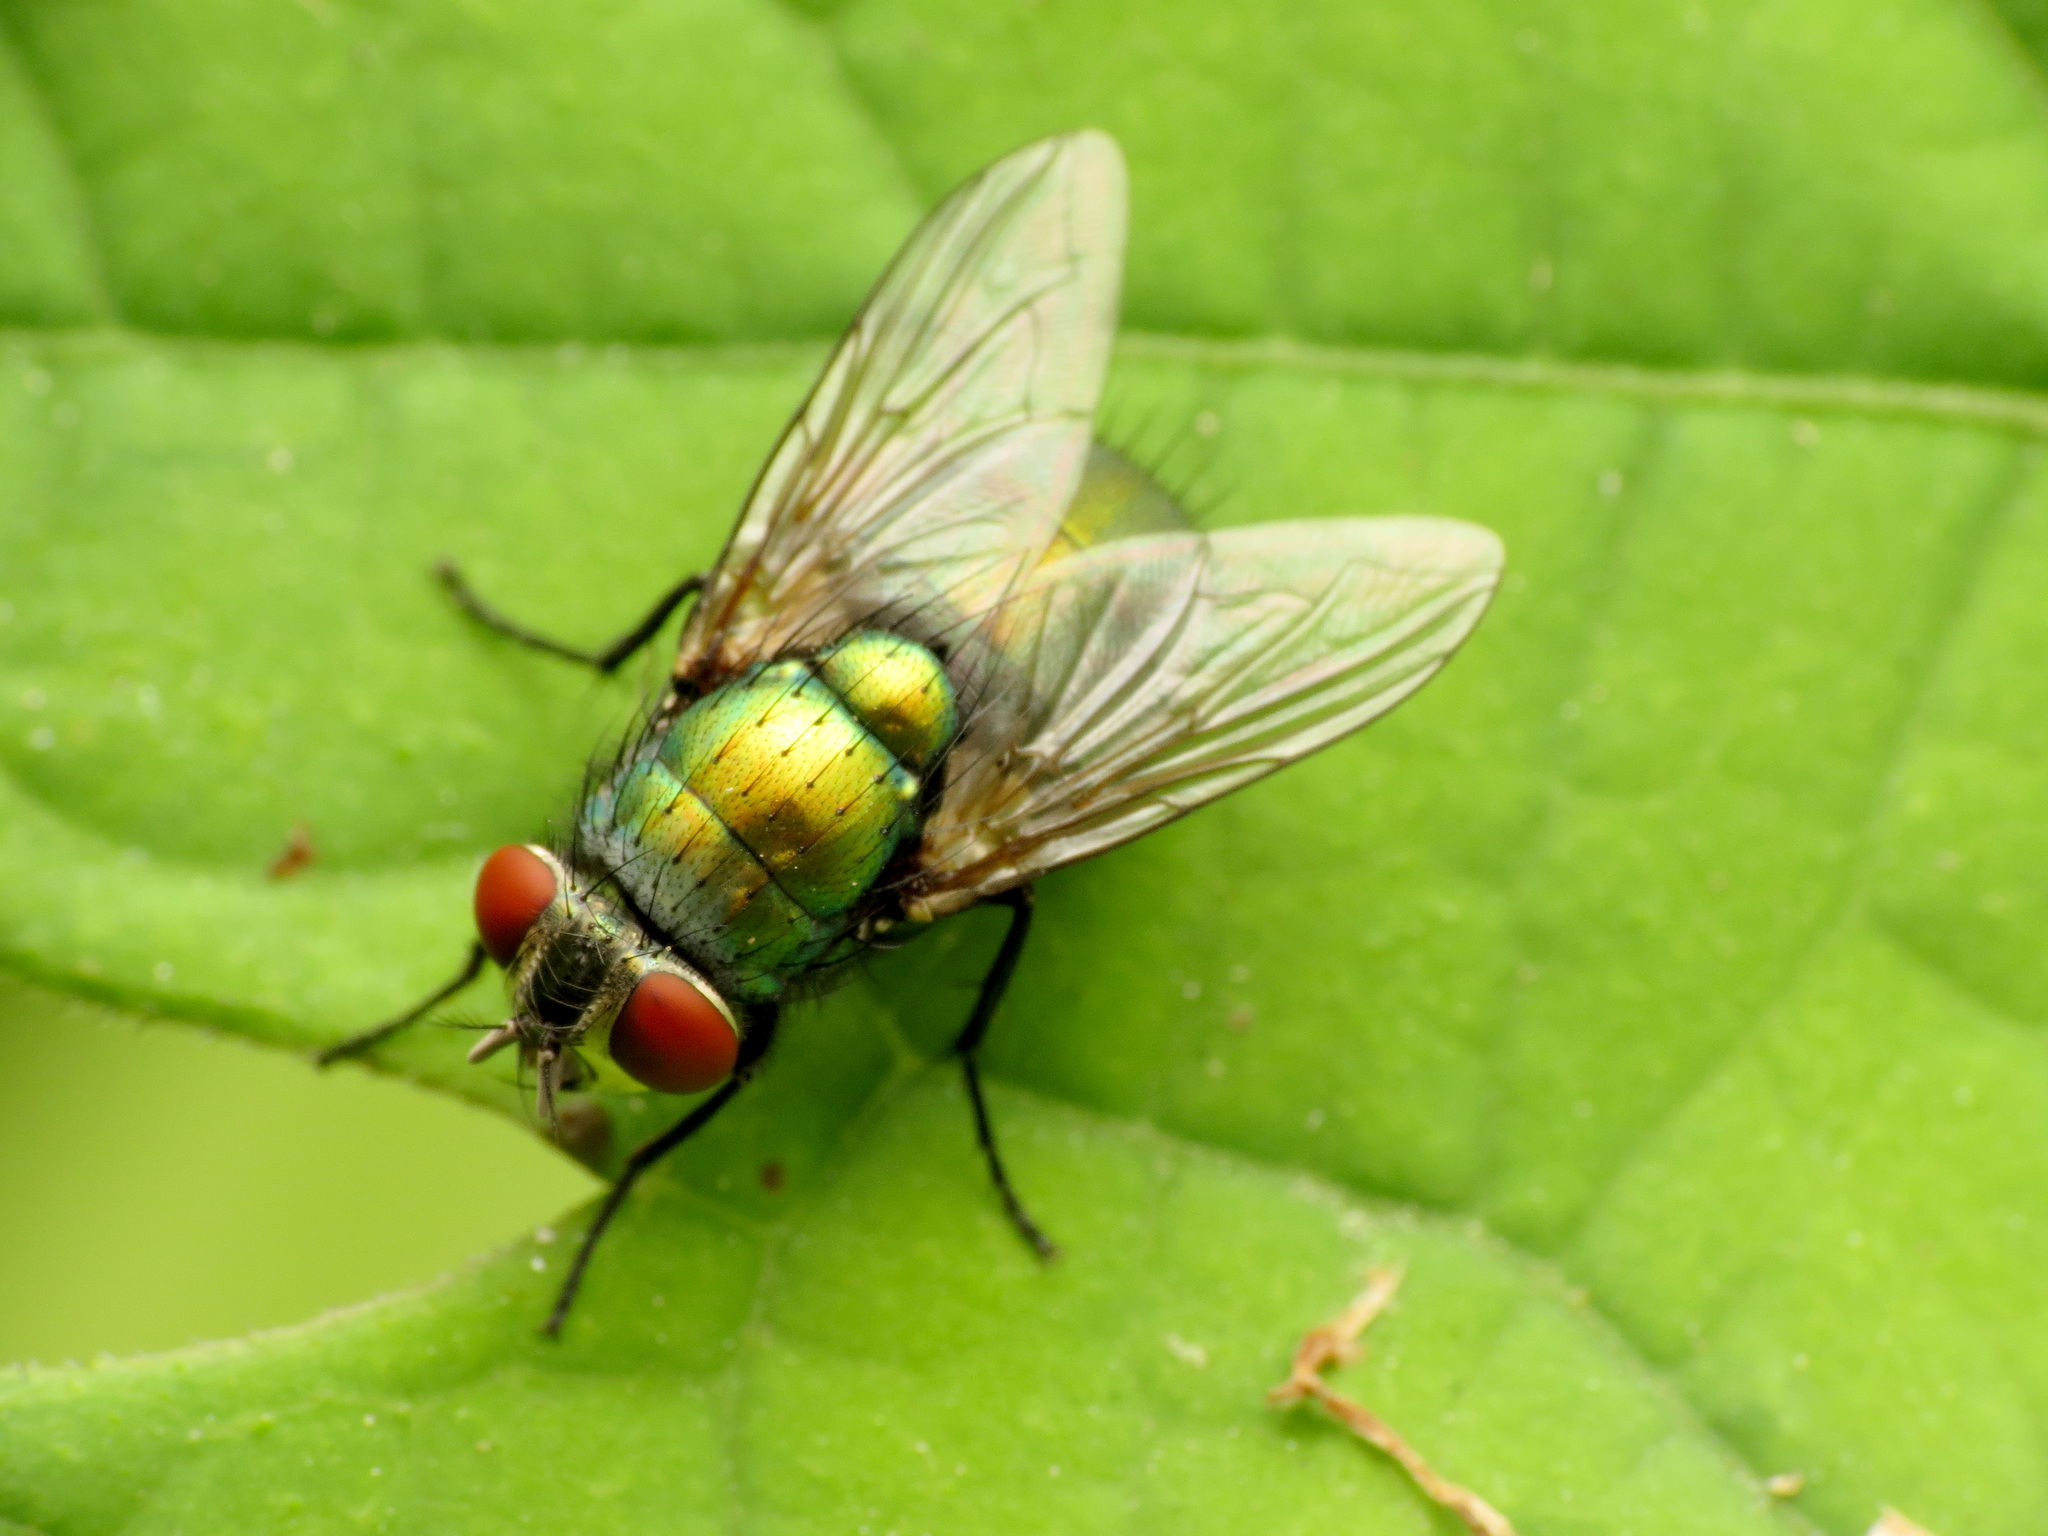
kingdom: Animalia
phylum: Arthropoda
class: Insecta
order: Diptera
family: Calliphoridae
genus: Lucilia
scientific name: Lucilia sericata
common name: Blow fly
